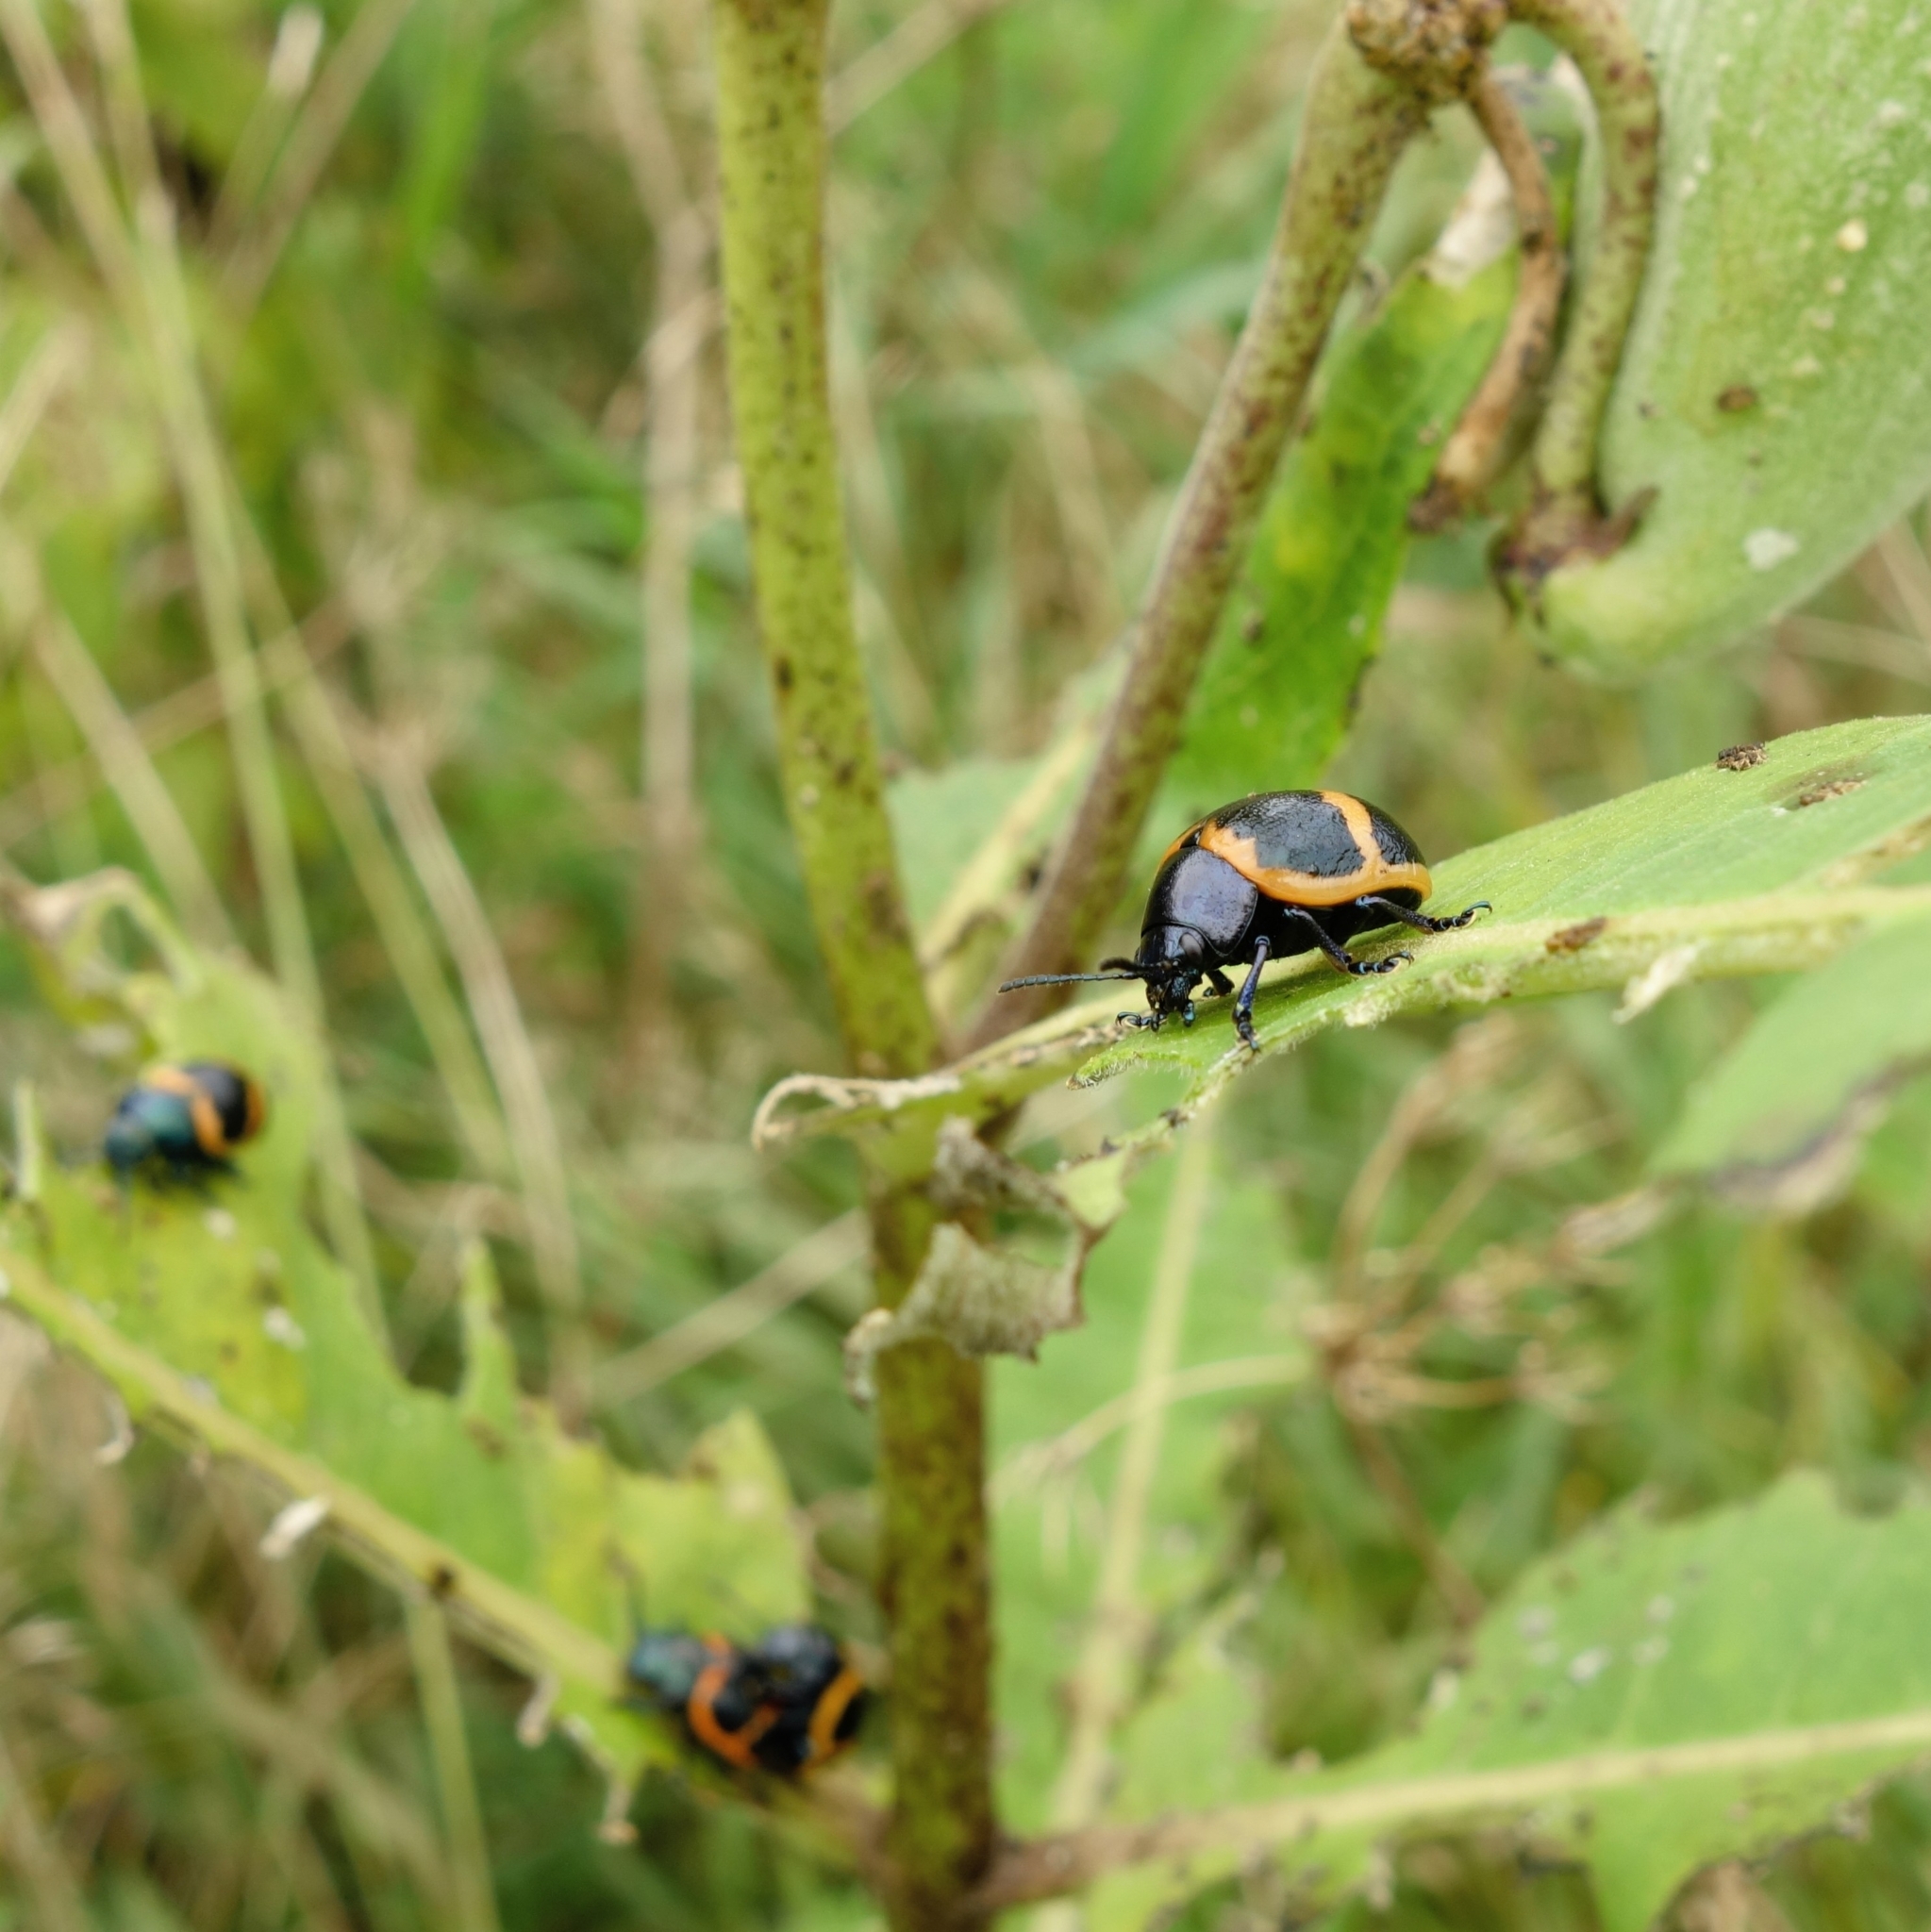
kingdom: Animalia
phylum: Arthropoda
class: Insecta
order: Coleoptera
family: Chrysomelidae
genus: Labidomera
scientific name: Labidomera clivicollis
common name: Swamp milkweed leaf beetle
